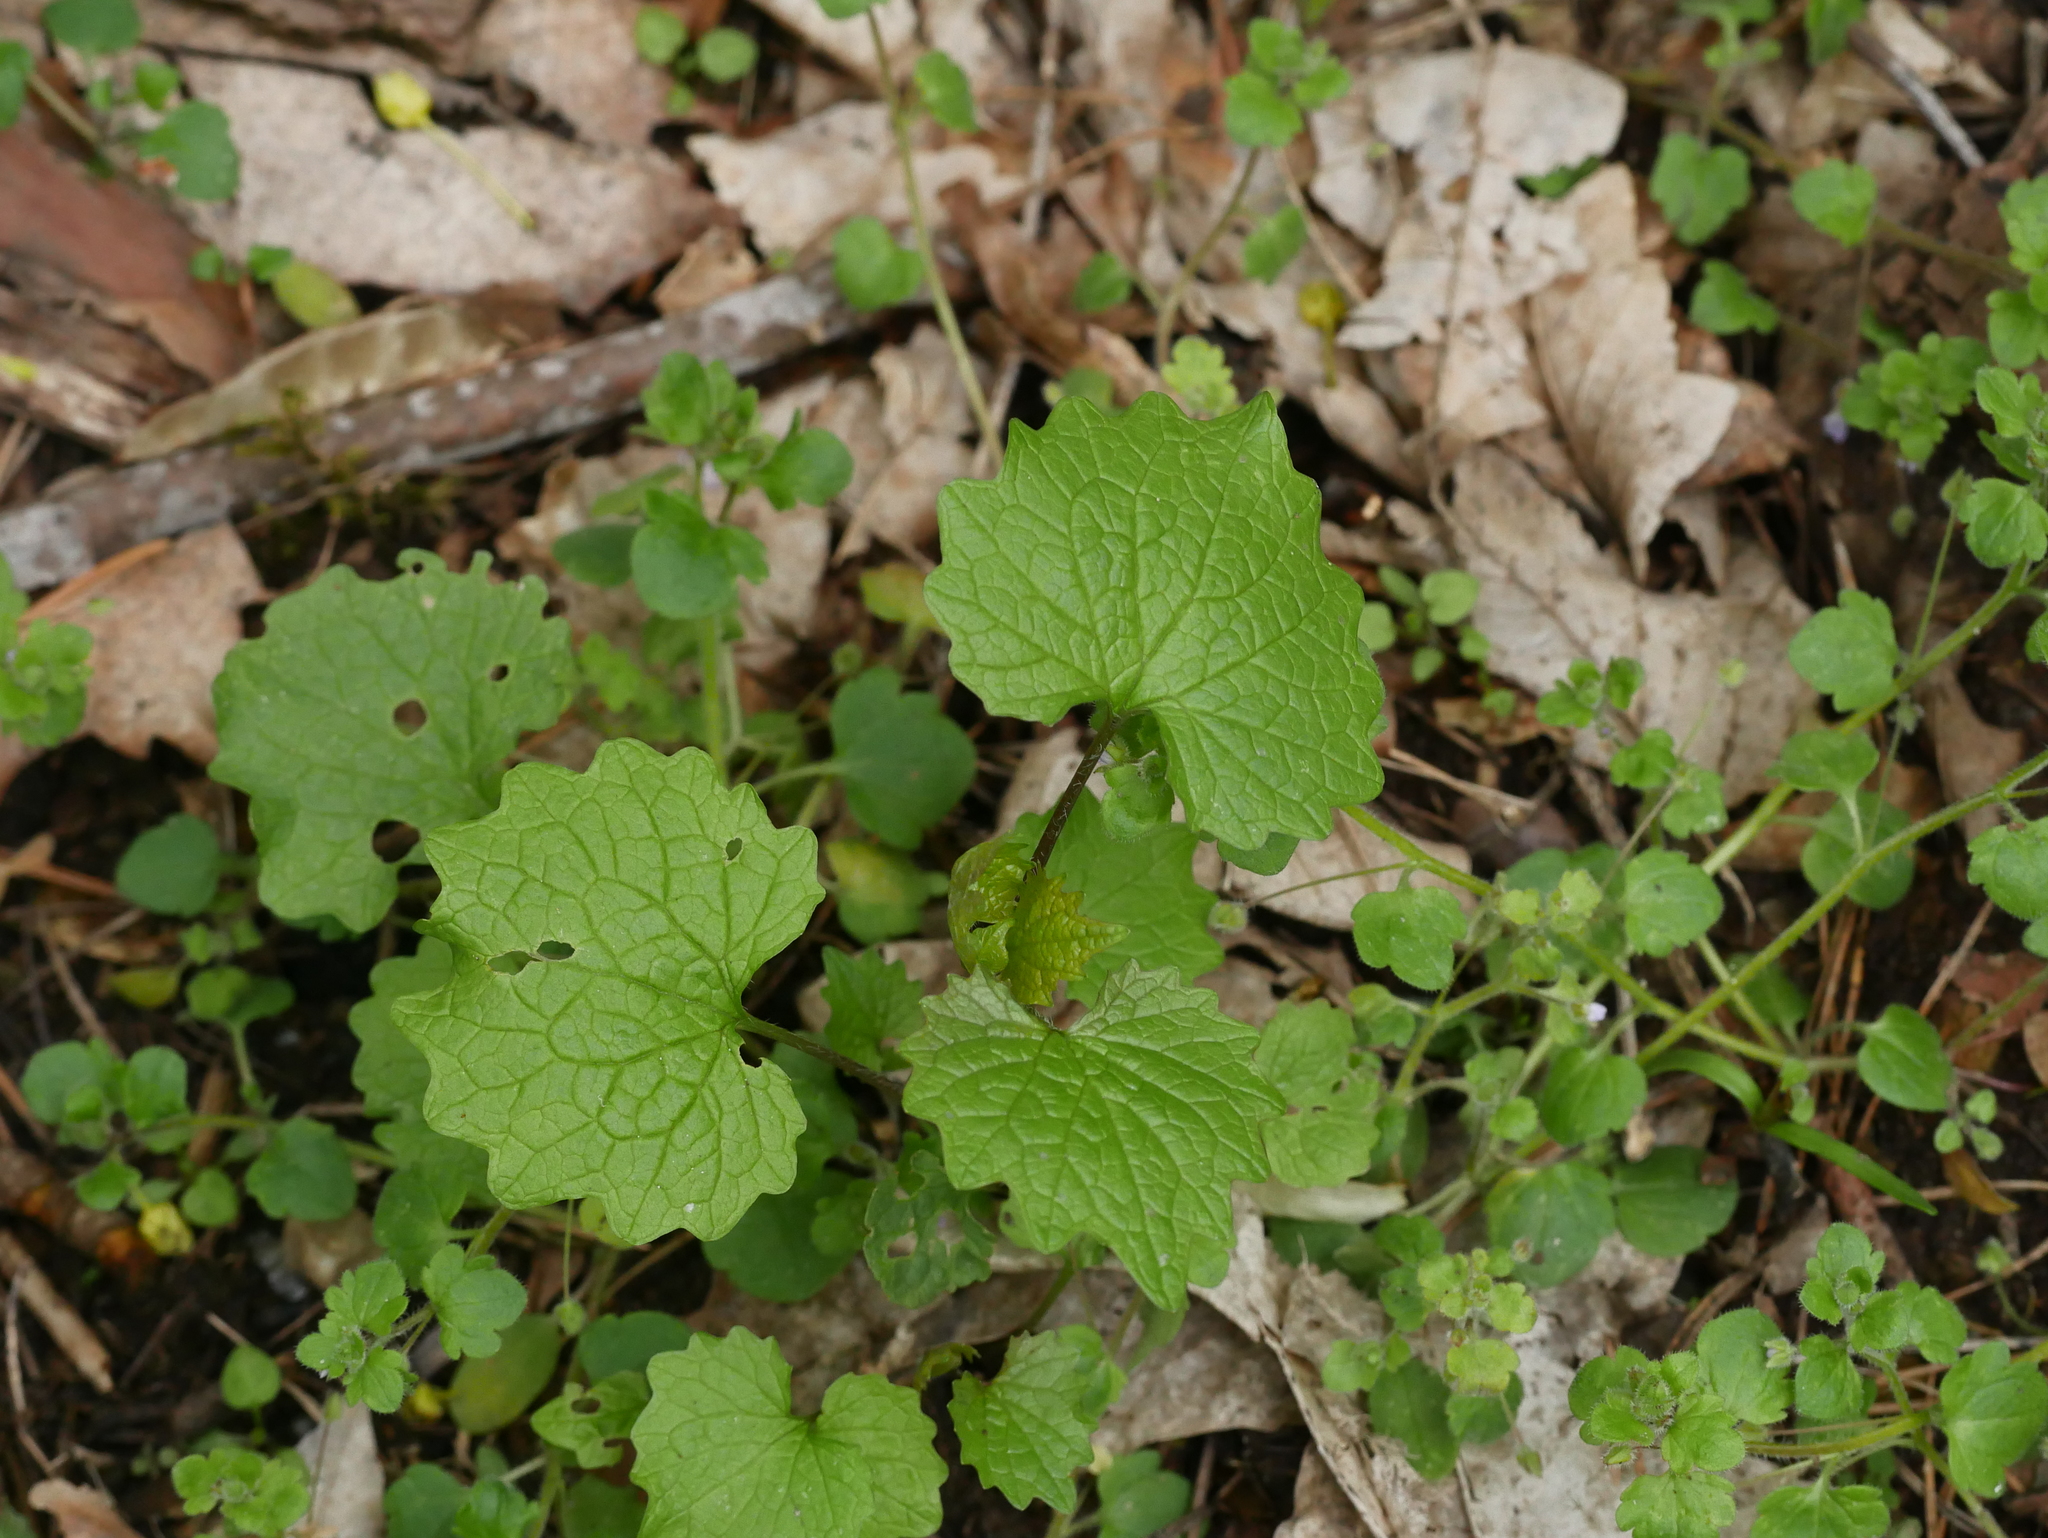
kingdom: Plantae
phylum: Tracheophyta
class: Magnoliopsida
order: Brassicales
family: Brassicaceae
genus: Alliaria
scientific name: Alliaria petiolata
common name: Garlic mustard
